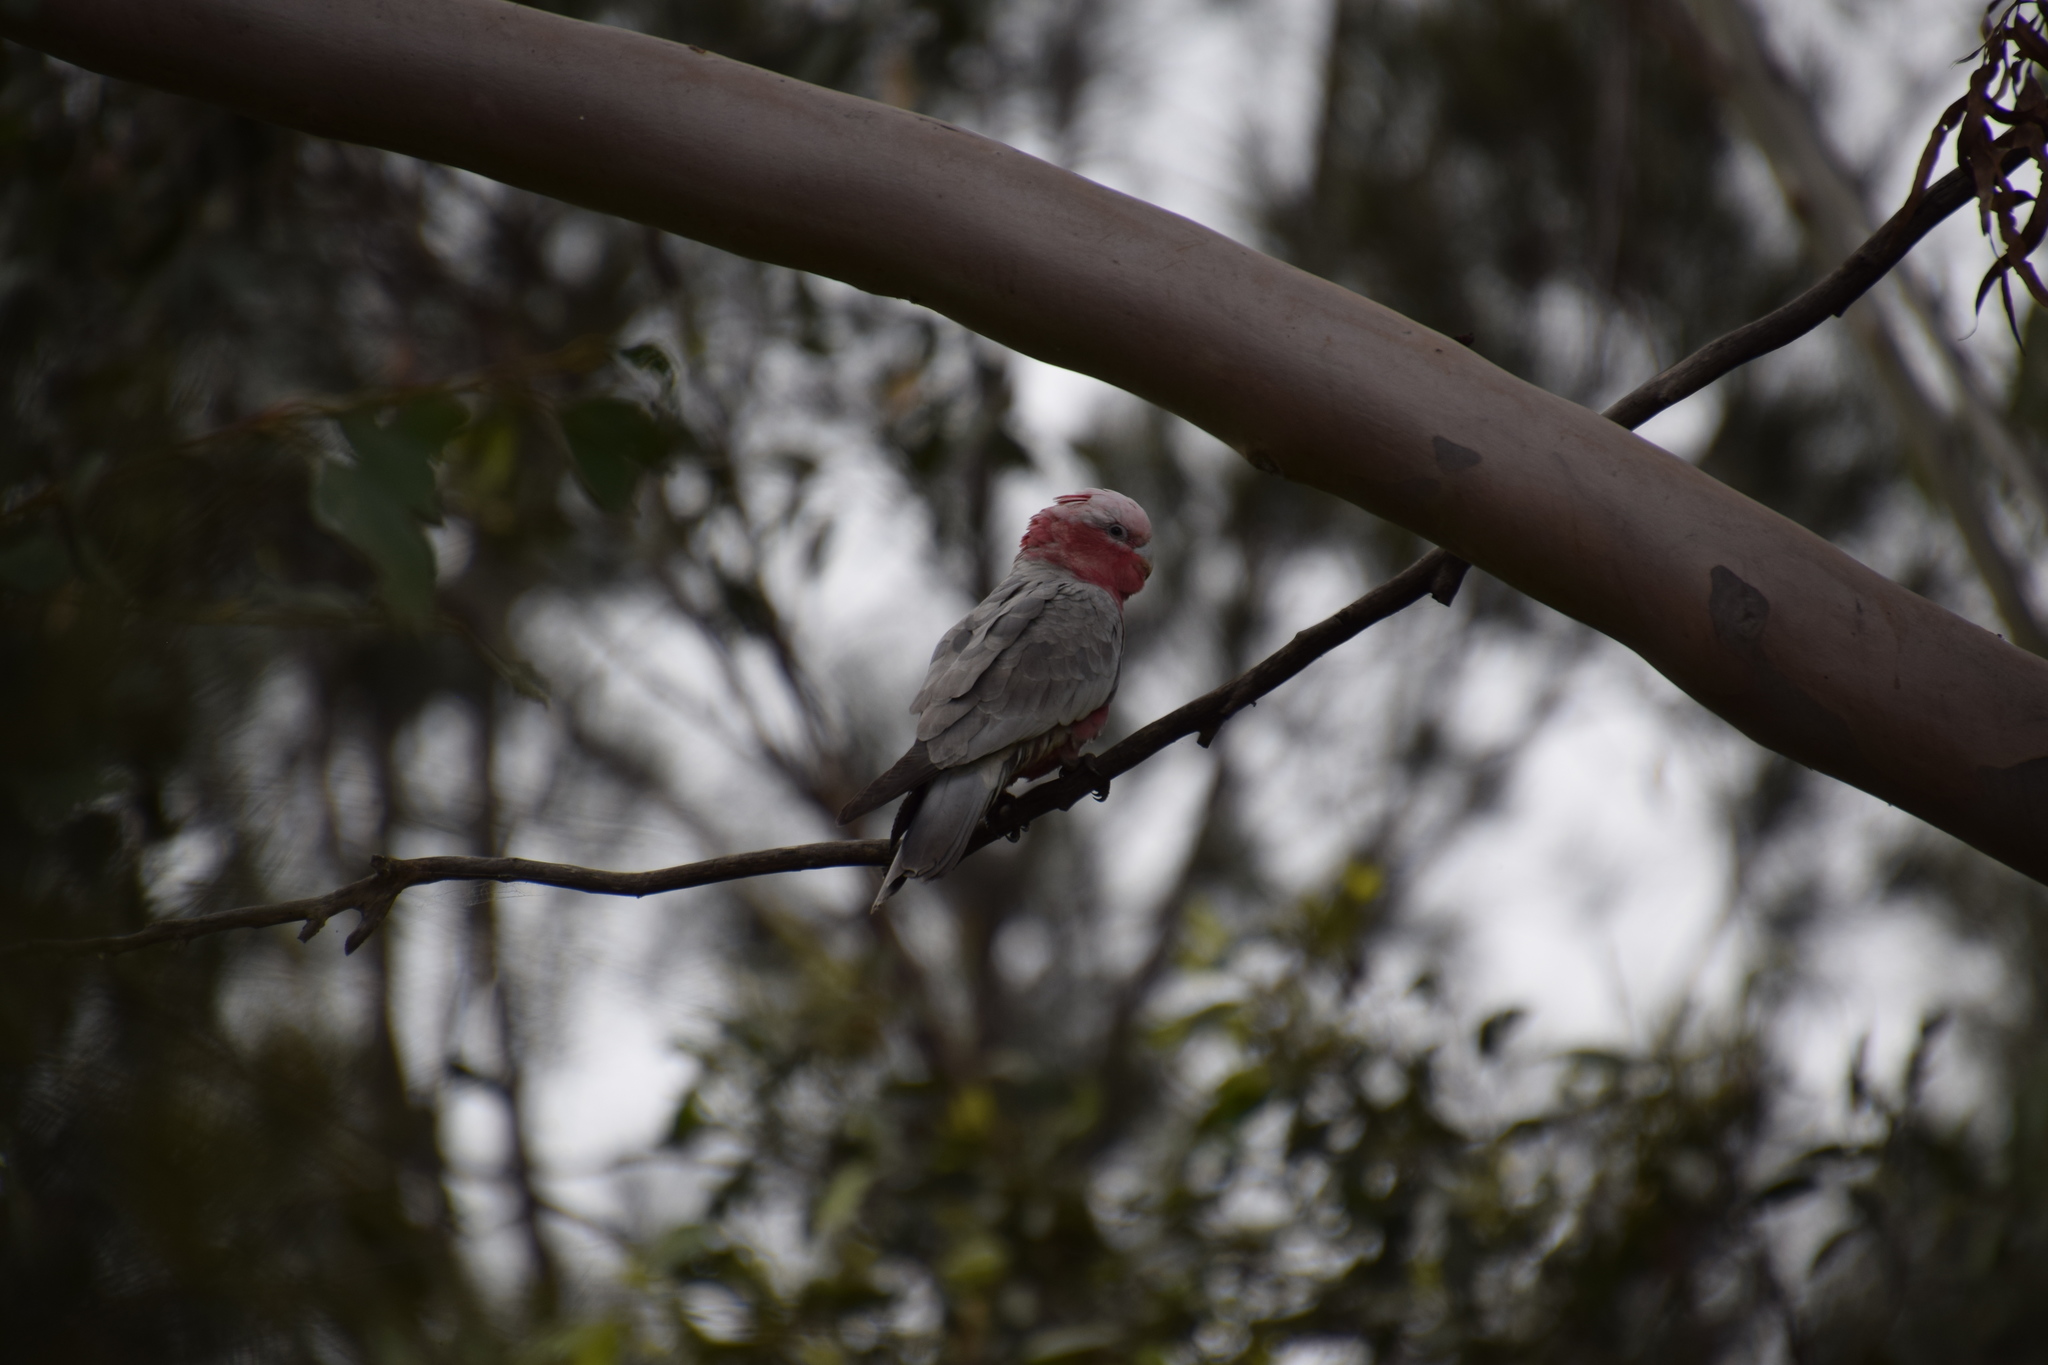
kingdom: Animalia
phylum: Chordata
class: Aves
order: Psittaciformes
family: Psittacidae
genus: Eolophus
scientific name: Eolophus roseicapilla
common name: Galah
